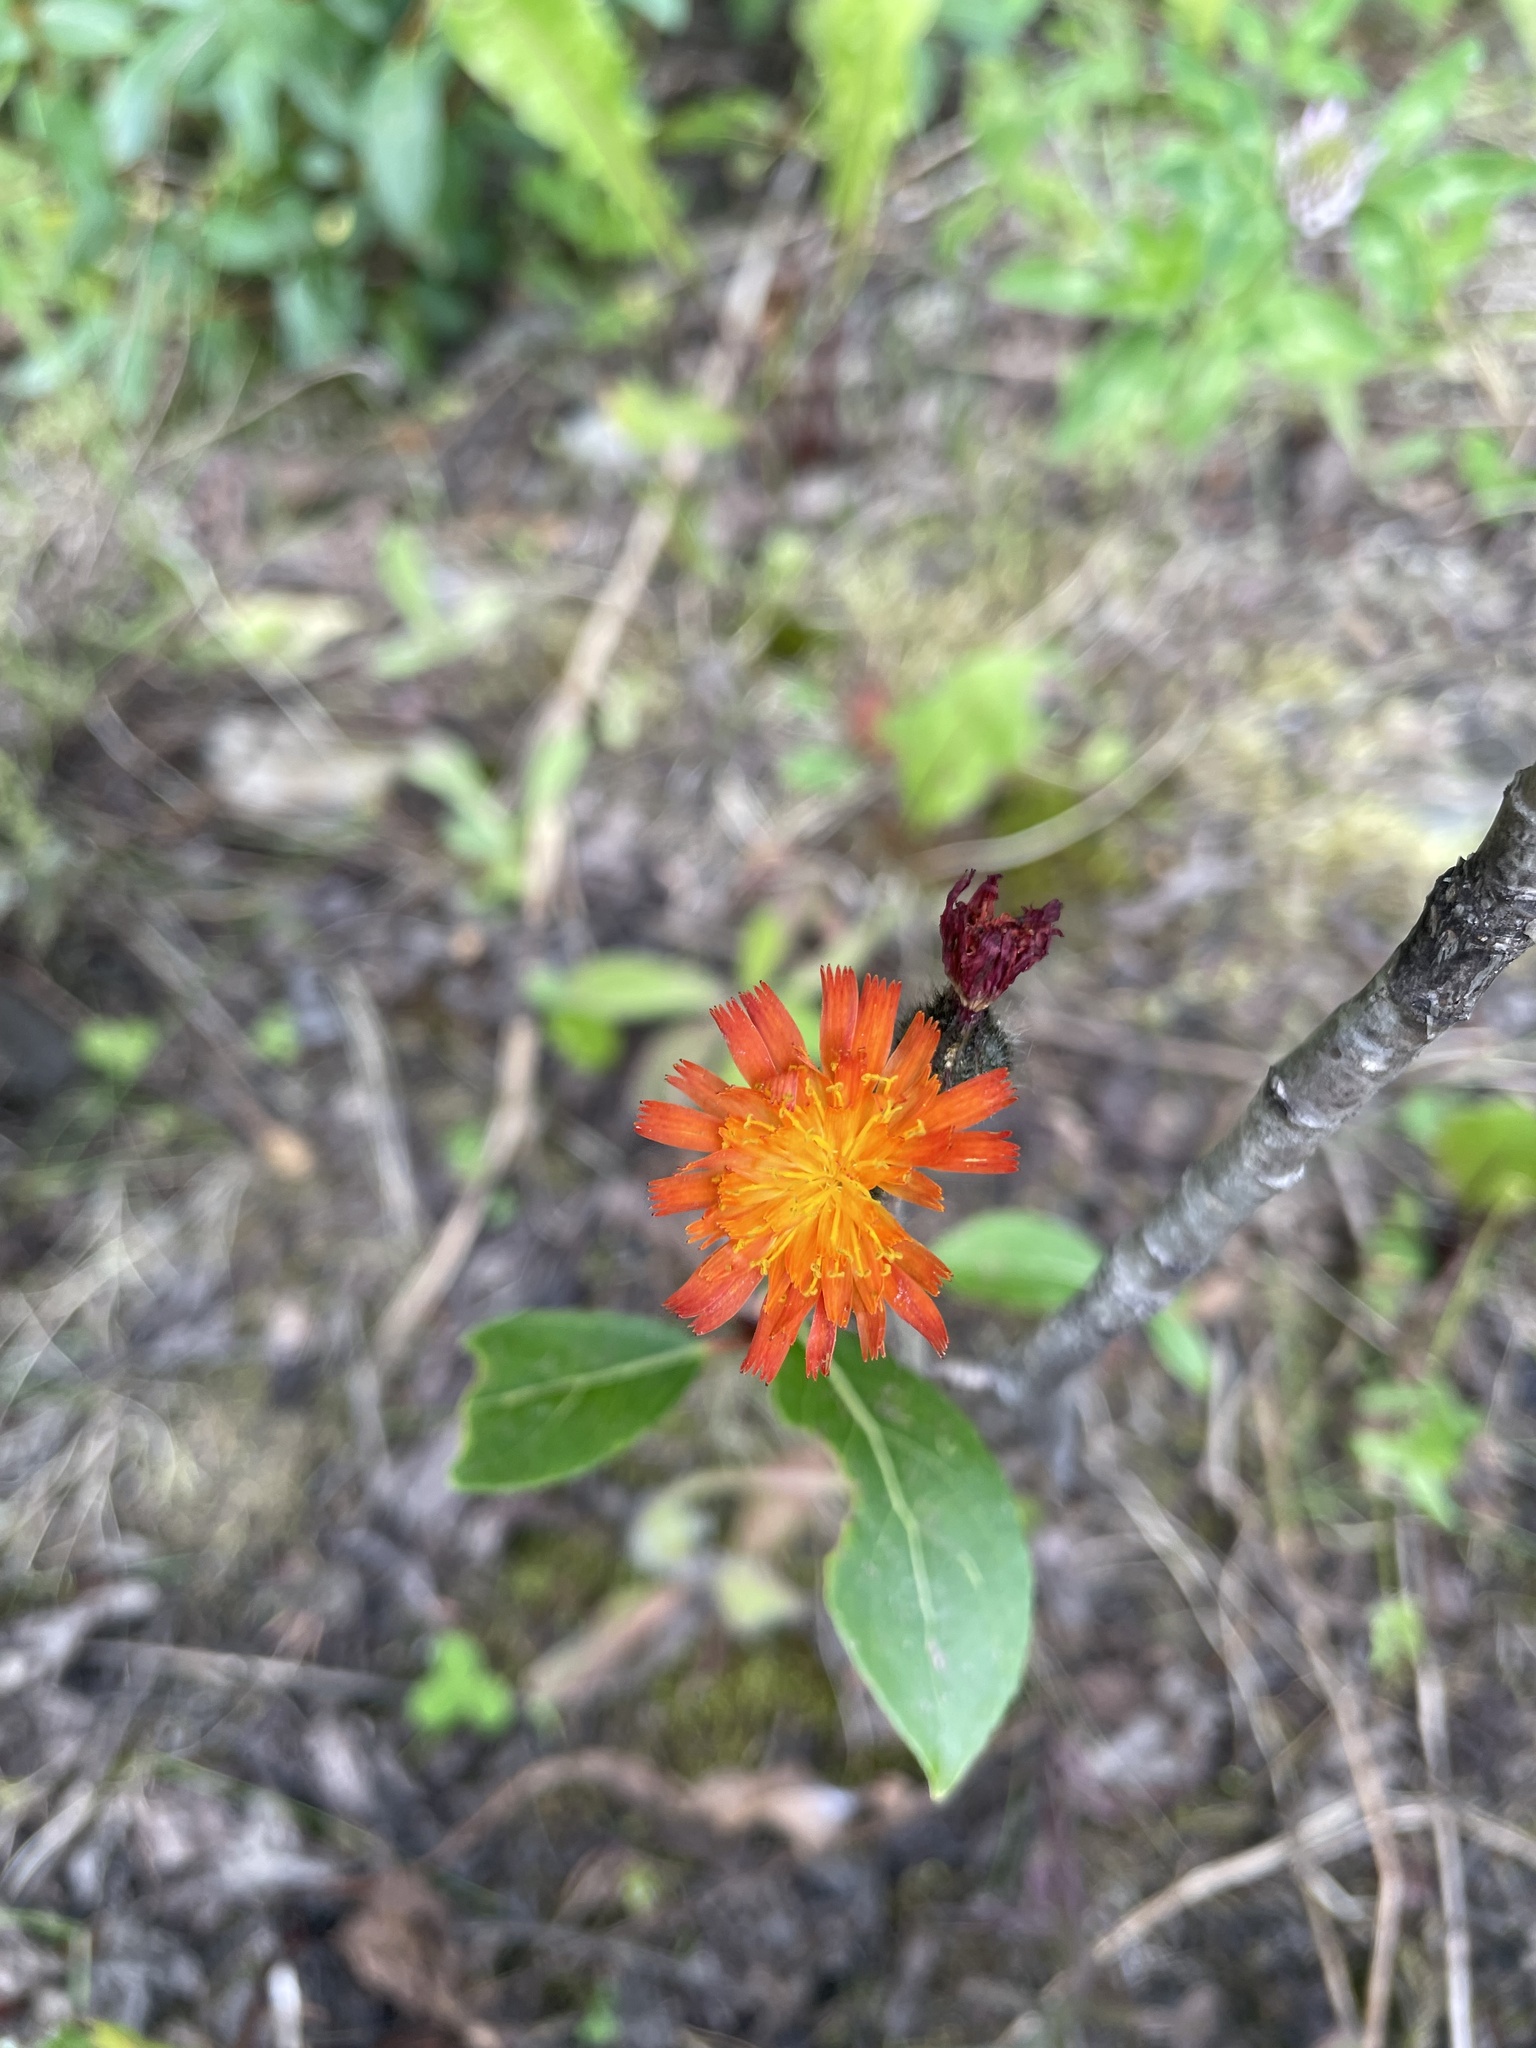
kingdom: Plantae
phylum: Tracheophyta
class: Magnoliopsida
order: Asterales
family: Asteraceae
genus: Pilosella
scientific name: Pilosella aurantiaca
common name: Fox-and-cubs
